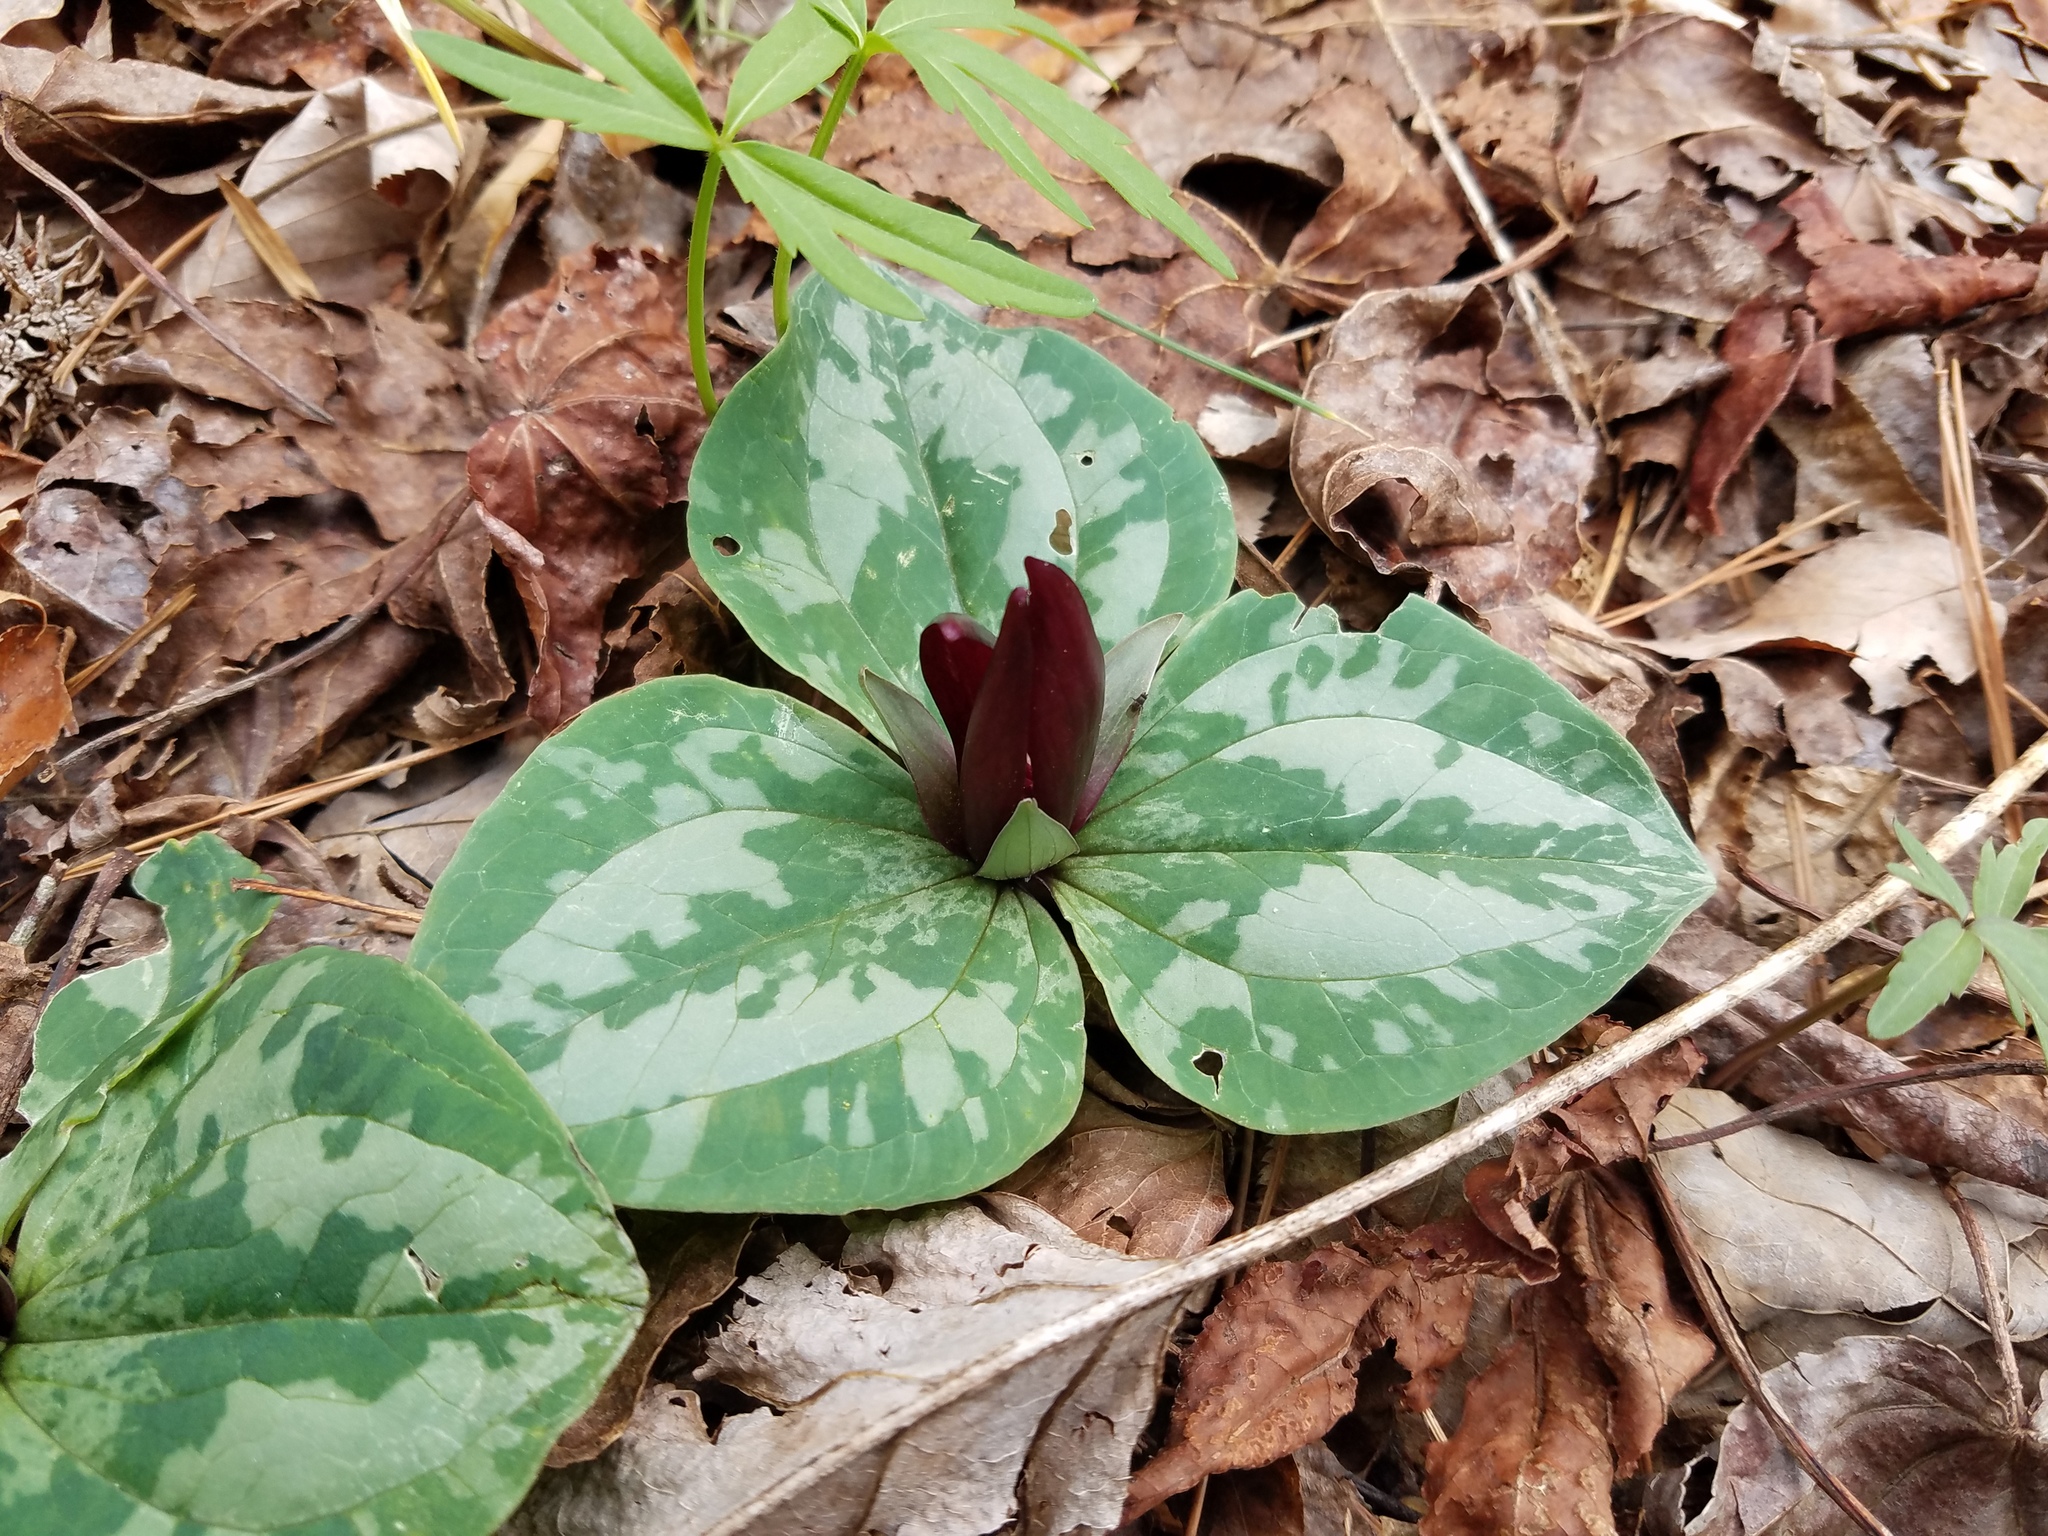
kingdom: Plantae
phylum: Tracheophyta
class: Liliopsida
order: Liliales
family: Melanthiaceae
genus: Trillium
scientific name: Trillium decumbens
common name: Decumbent trillium
